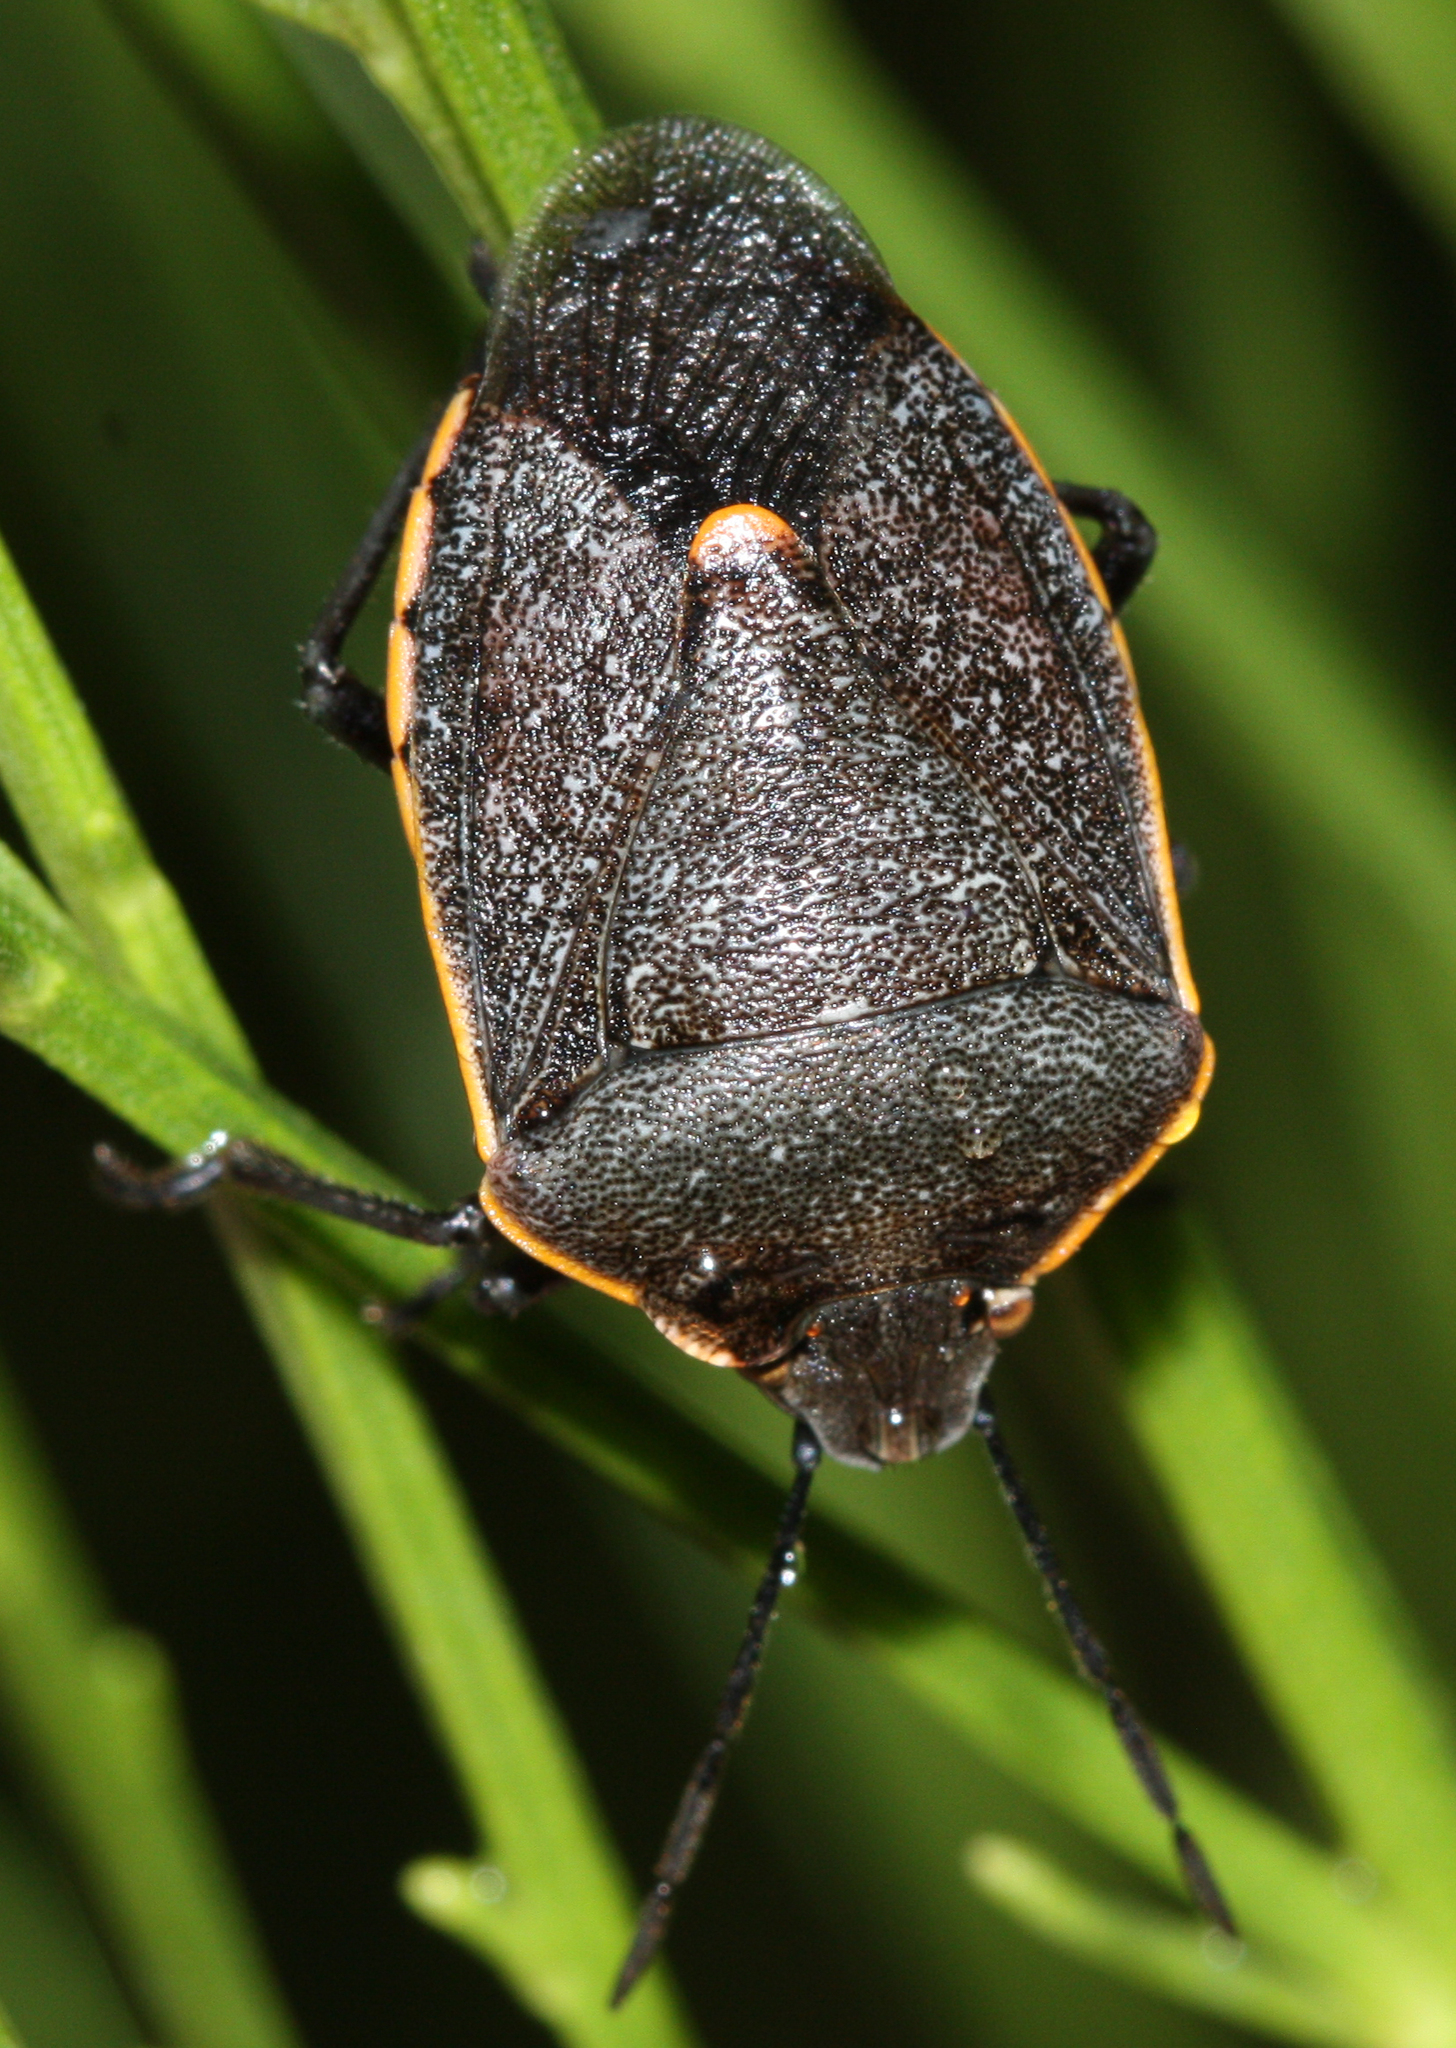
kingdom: Animalia
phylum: Arthropoda
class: Insecta
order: Hemiptera
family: Pentatomidae
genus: Chlorochroa
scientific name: Chlorochroa ligata
